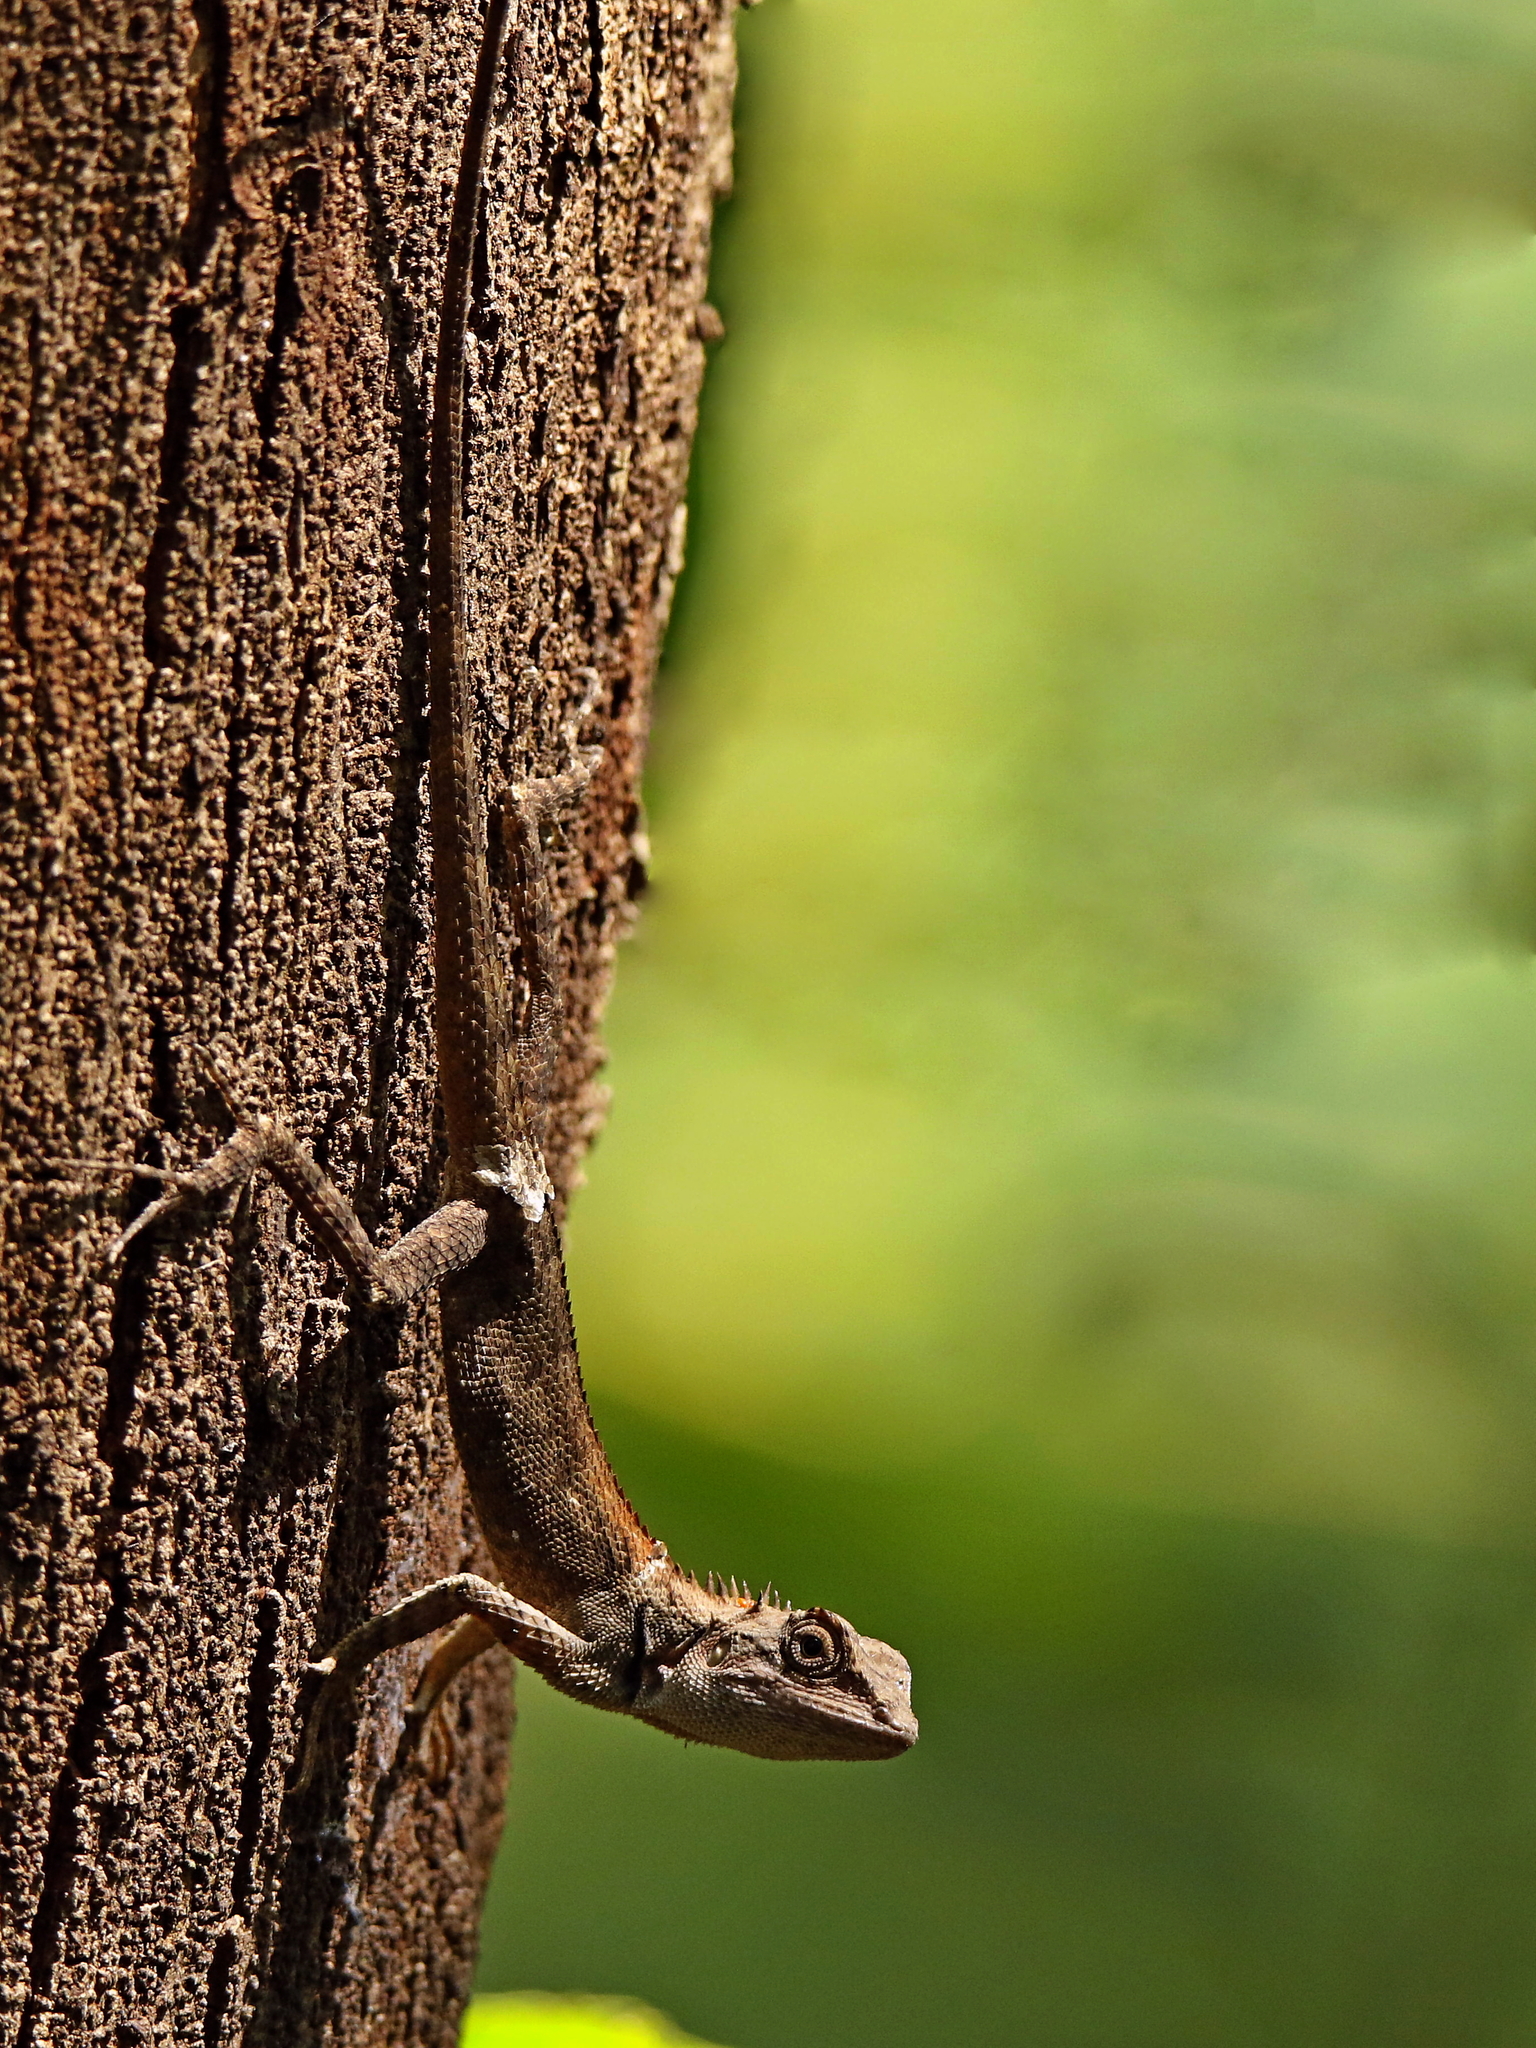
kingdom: Animalia
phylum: Chordata
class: Squamata
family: Agamidae
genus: Calotes
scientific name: Calotes versicolor
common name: Oriental garden lizard
